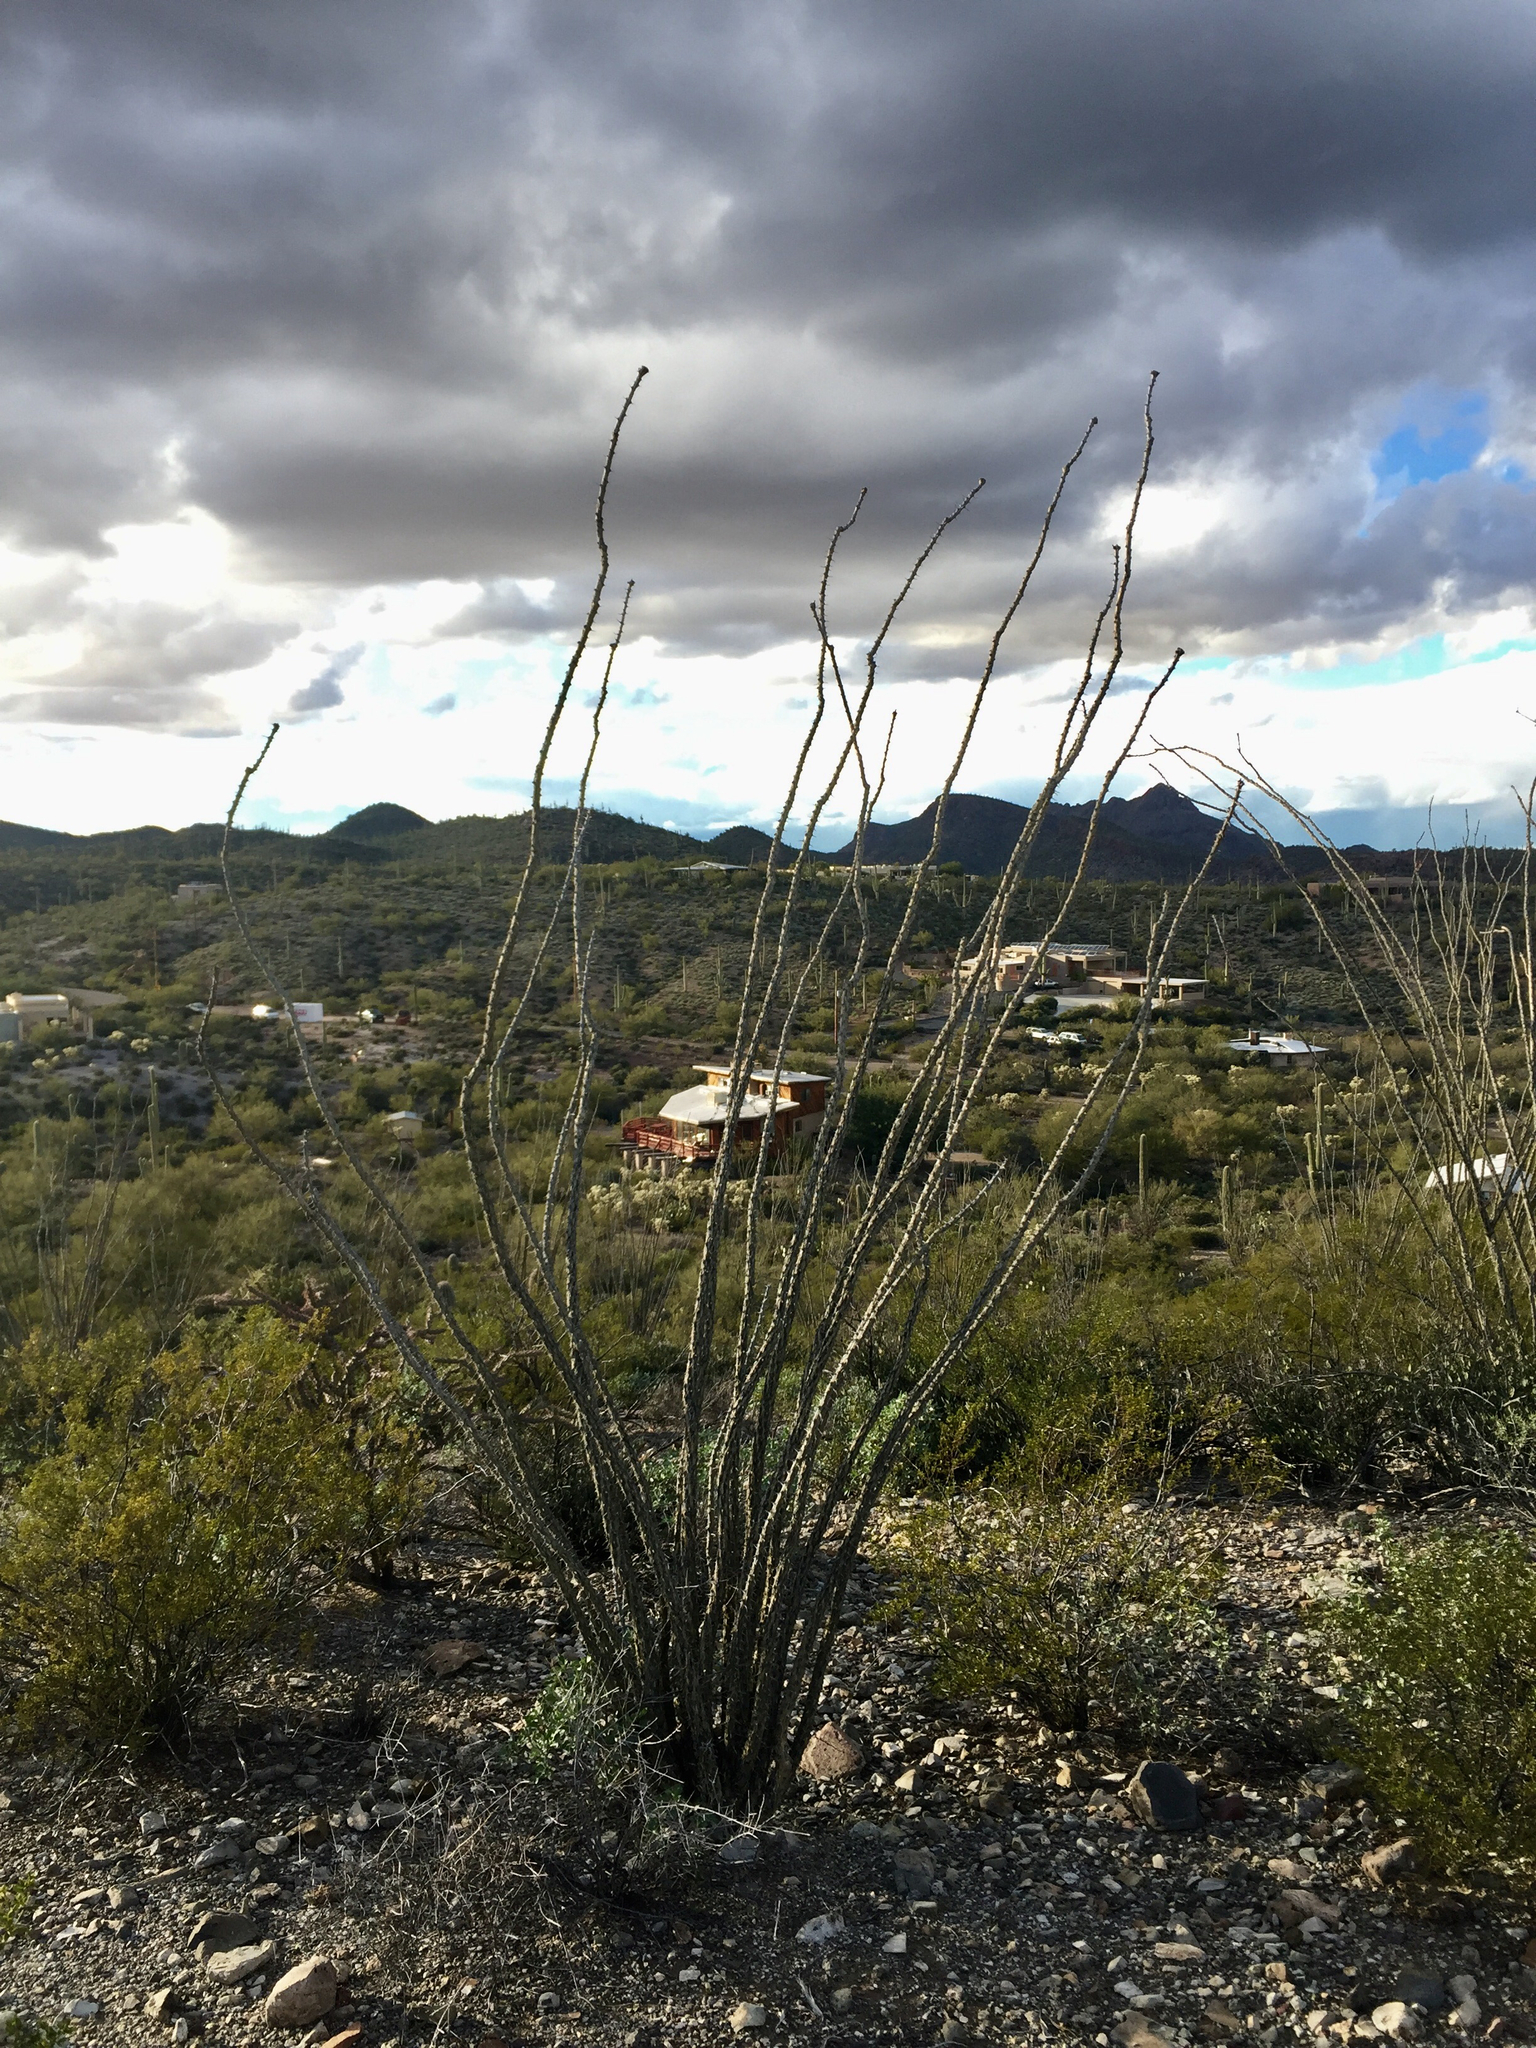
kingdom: Plantae
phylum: Tracheophyta
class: Magnoliopsida
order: Ericales
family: Fouquieriaceae
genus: Fouquieria
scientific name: Fouquieria splendens
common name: Vine-cactus
